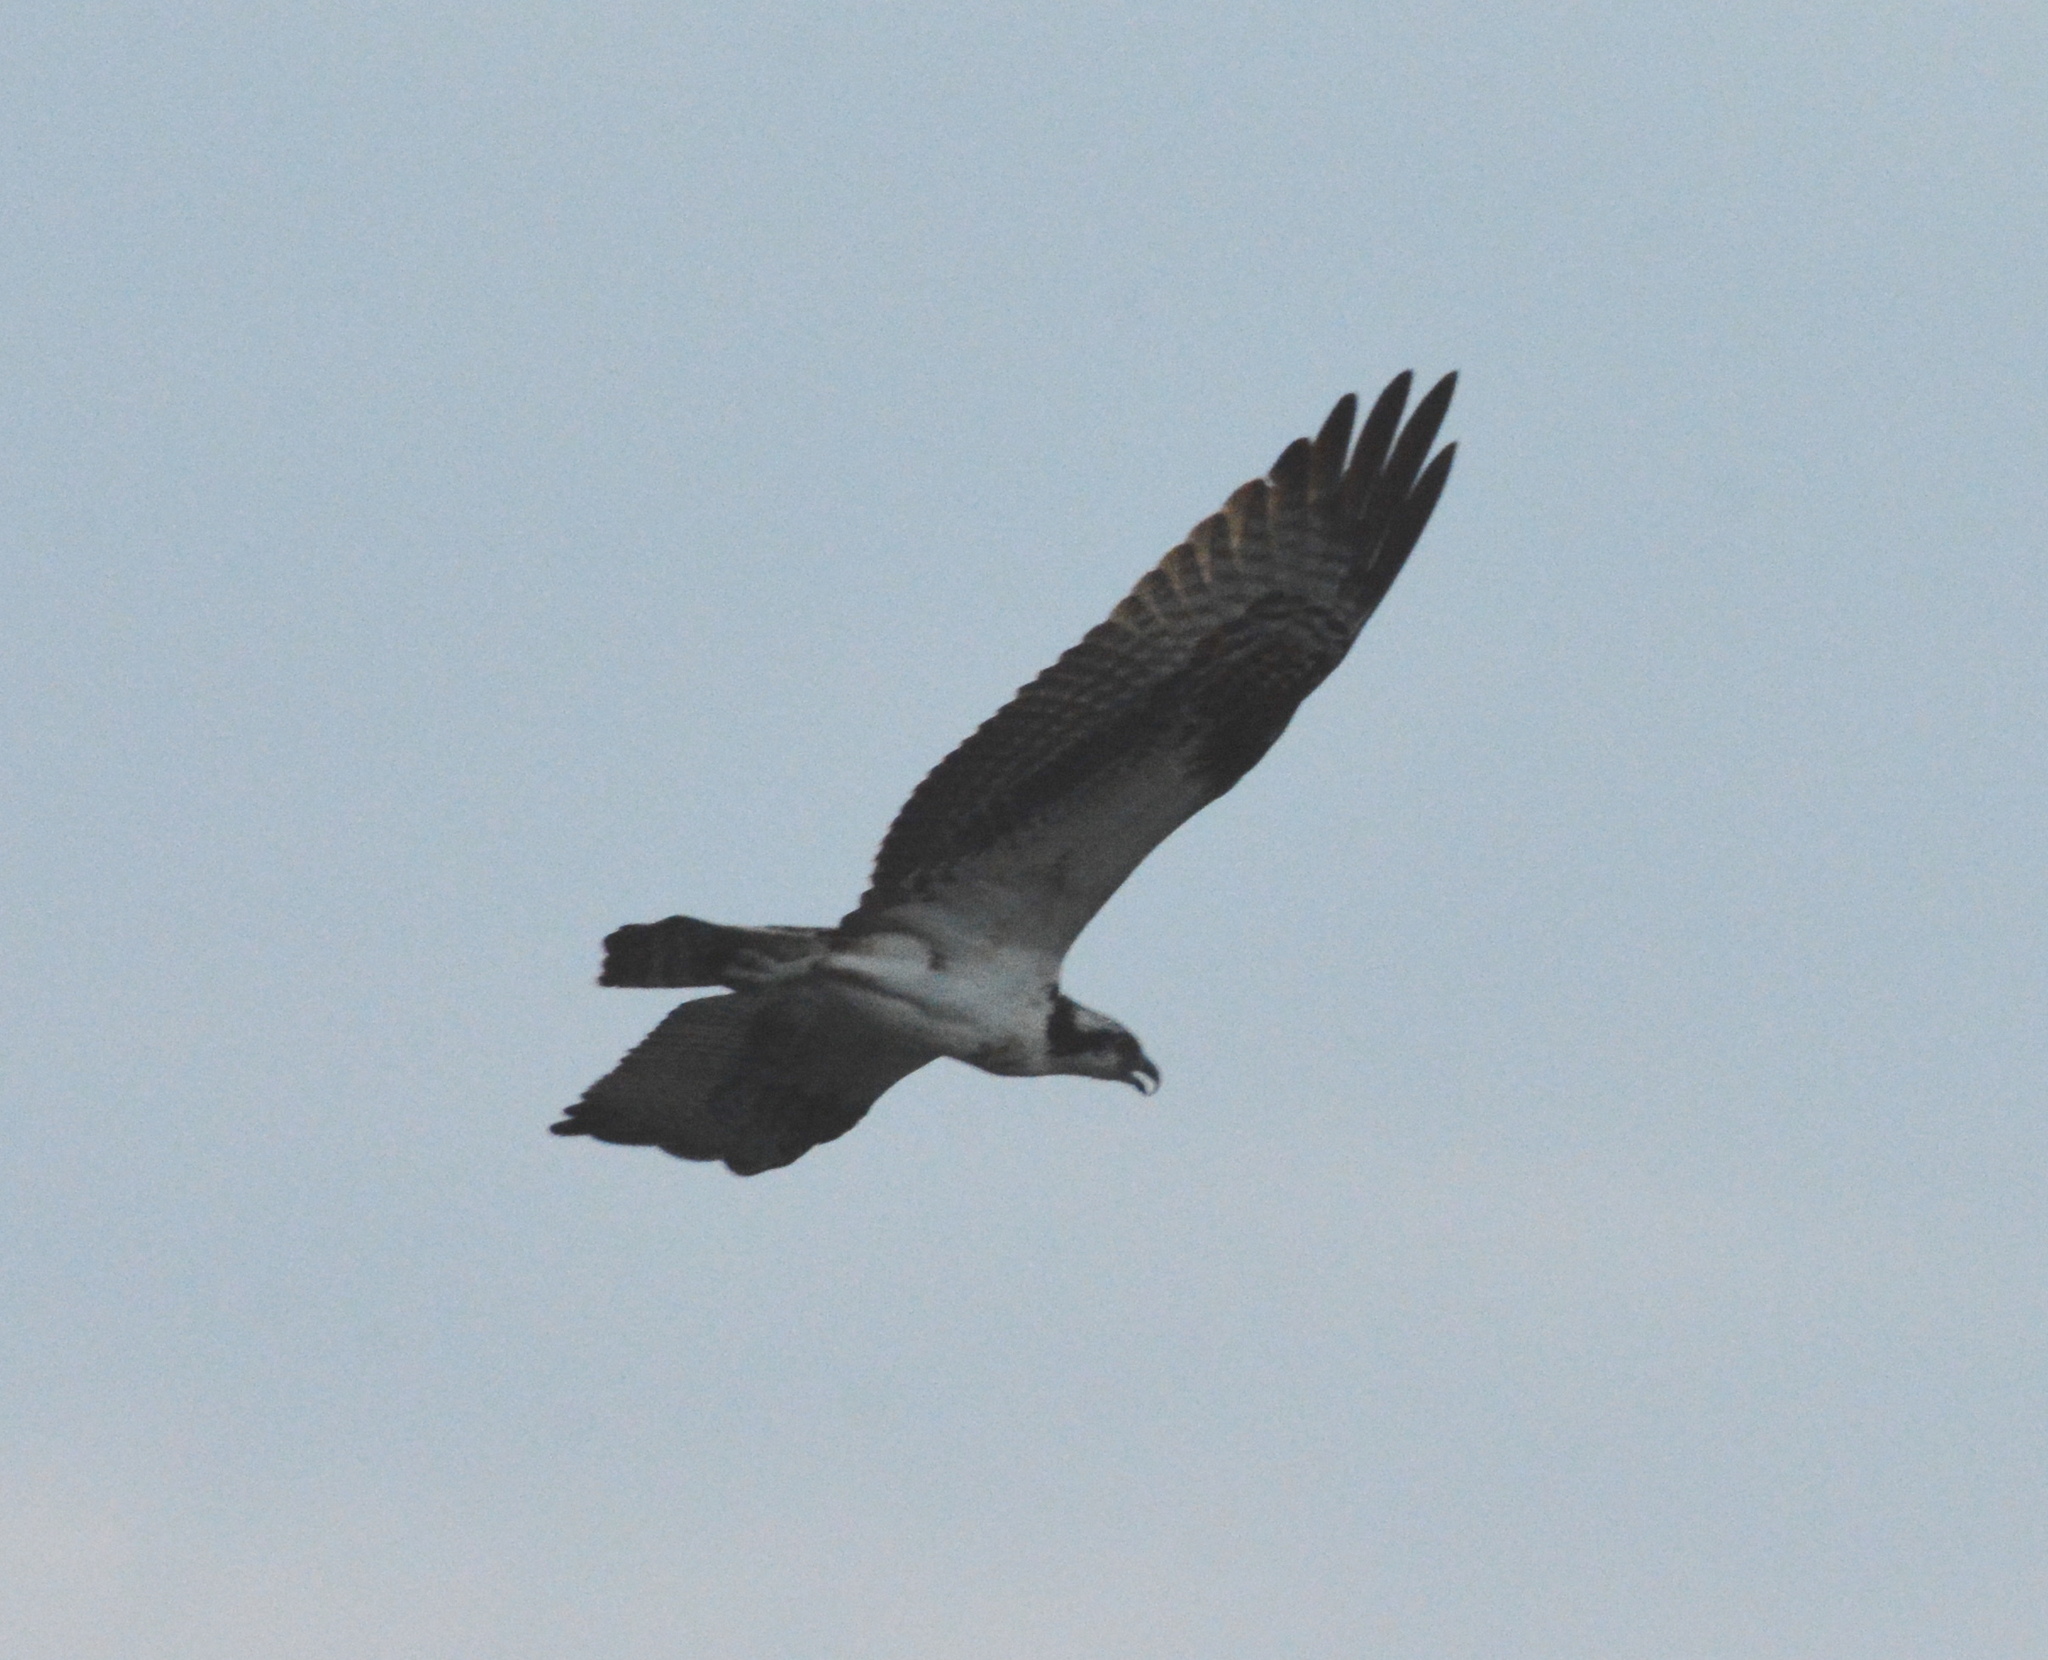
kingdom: Animalia
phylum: Chordata
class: Aves
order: Accipitriformes
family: Pandionidae
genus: Pandion
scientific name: Pandion haliaetus
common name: Osprey
